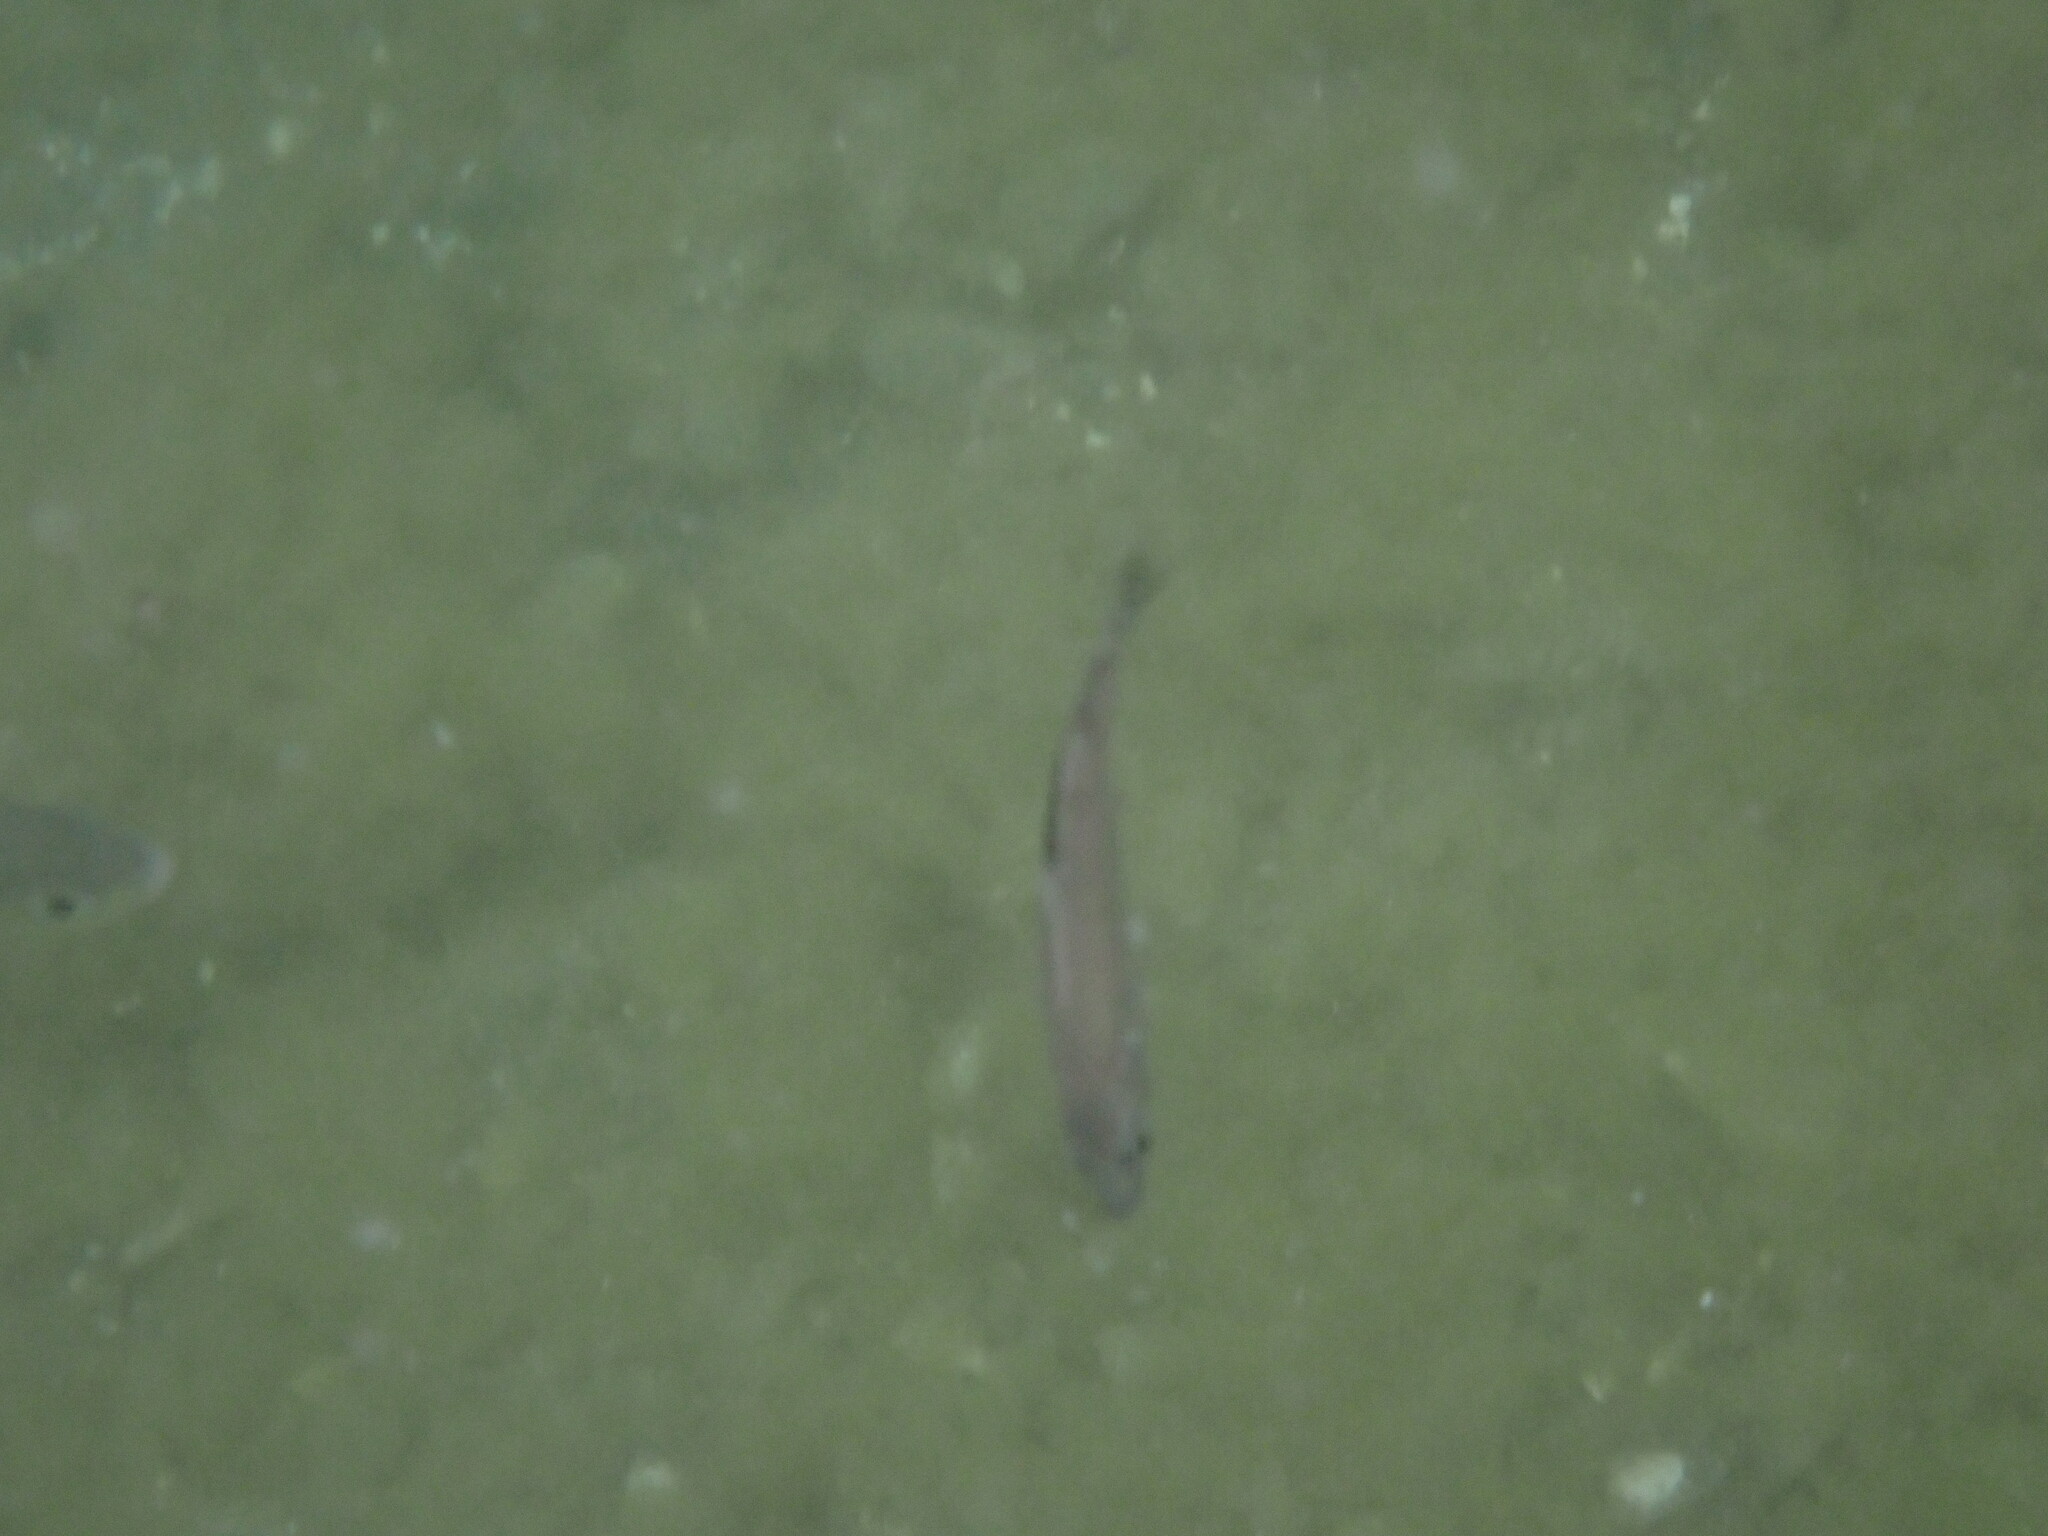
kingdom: Animalia
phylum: Chordata
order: Perciformes
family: Embiotocidae
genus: Cymatogaster
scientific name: Cymatogaster aggregata
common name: Shiner perch
